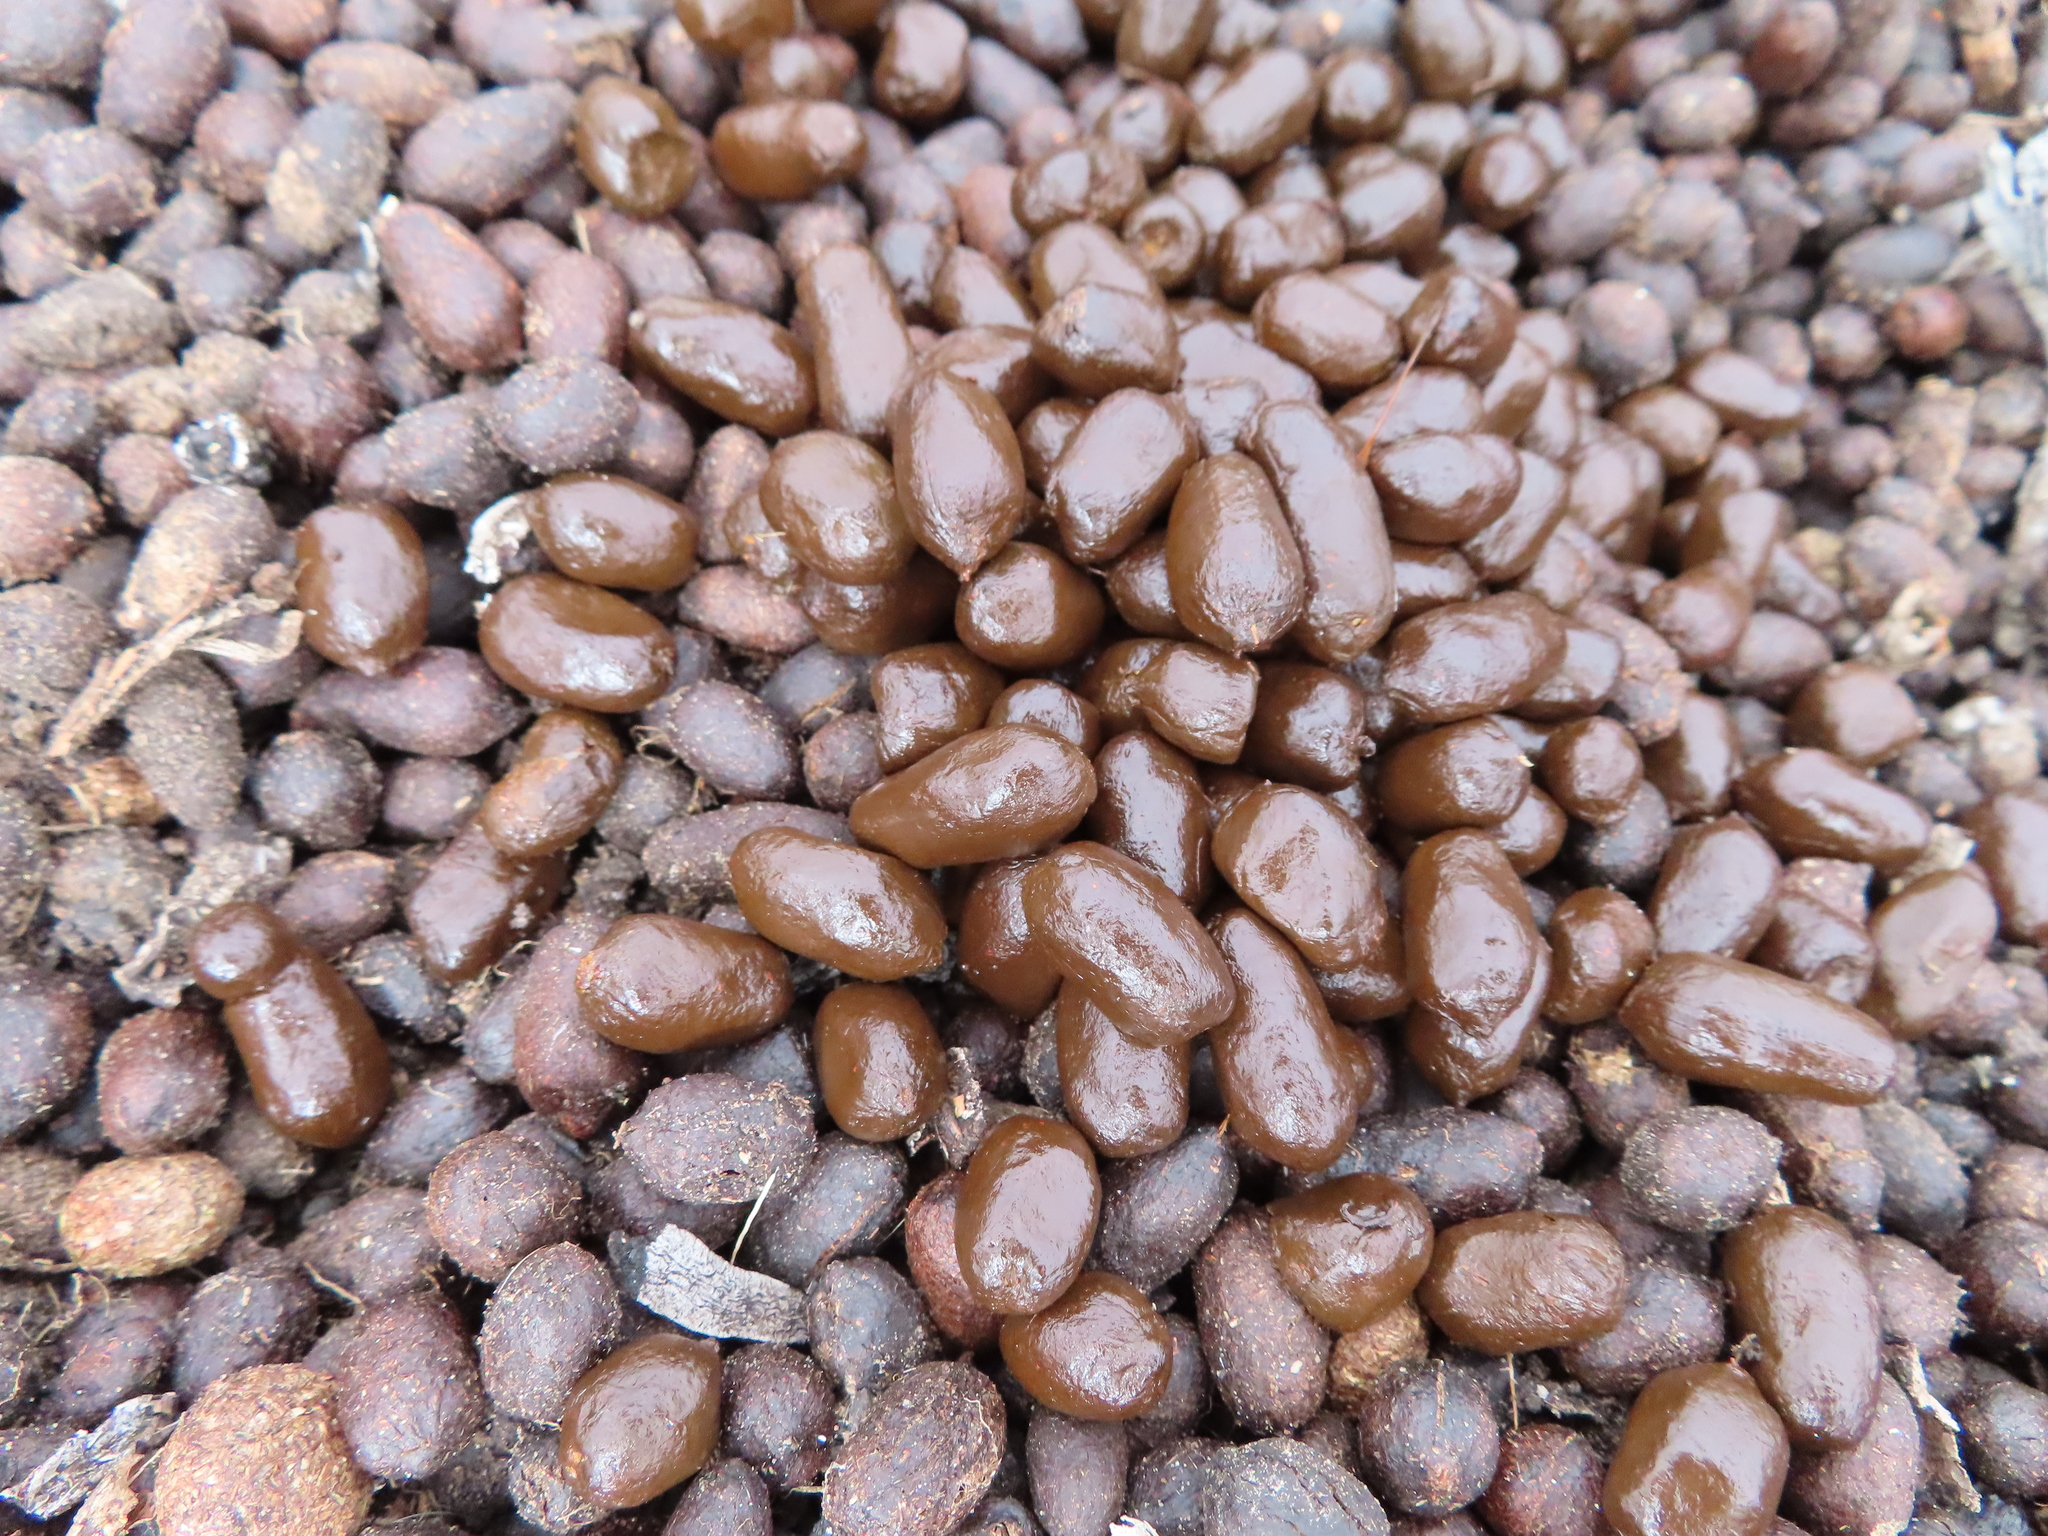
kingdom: Animalia
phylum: Chordata
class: Mammalia
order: Artiodactyla
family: Bovidae
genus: Oreotragus
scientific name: Oreotragus oreotragus
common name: Klipspringer
